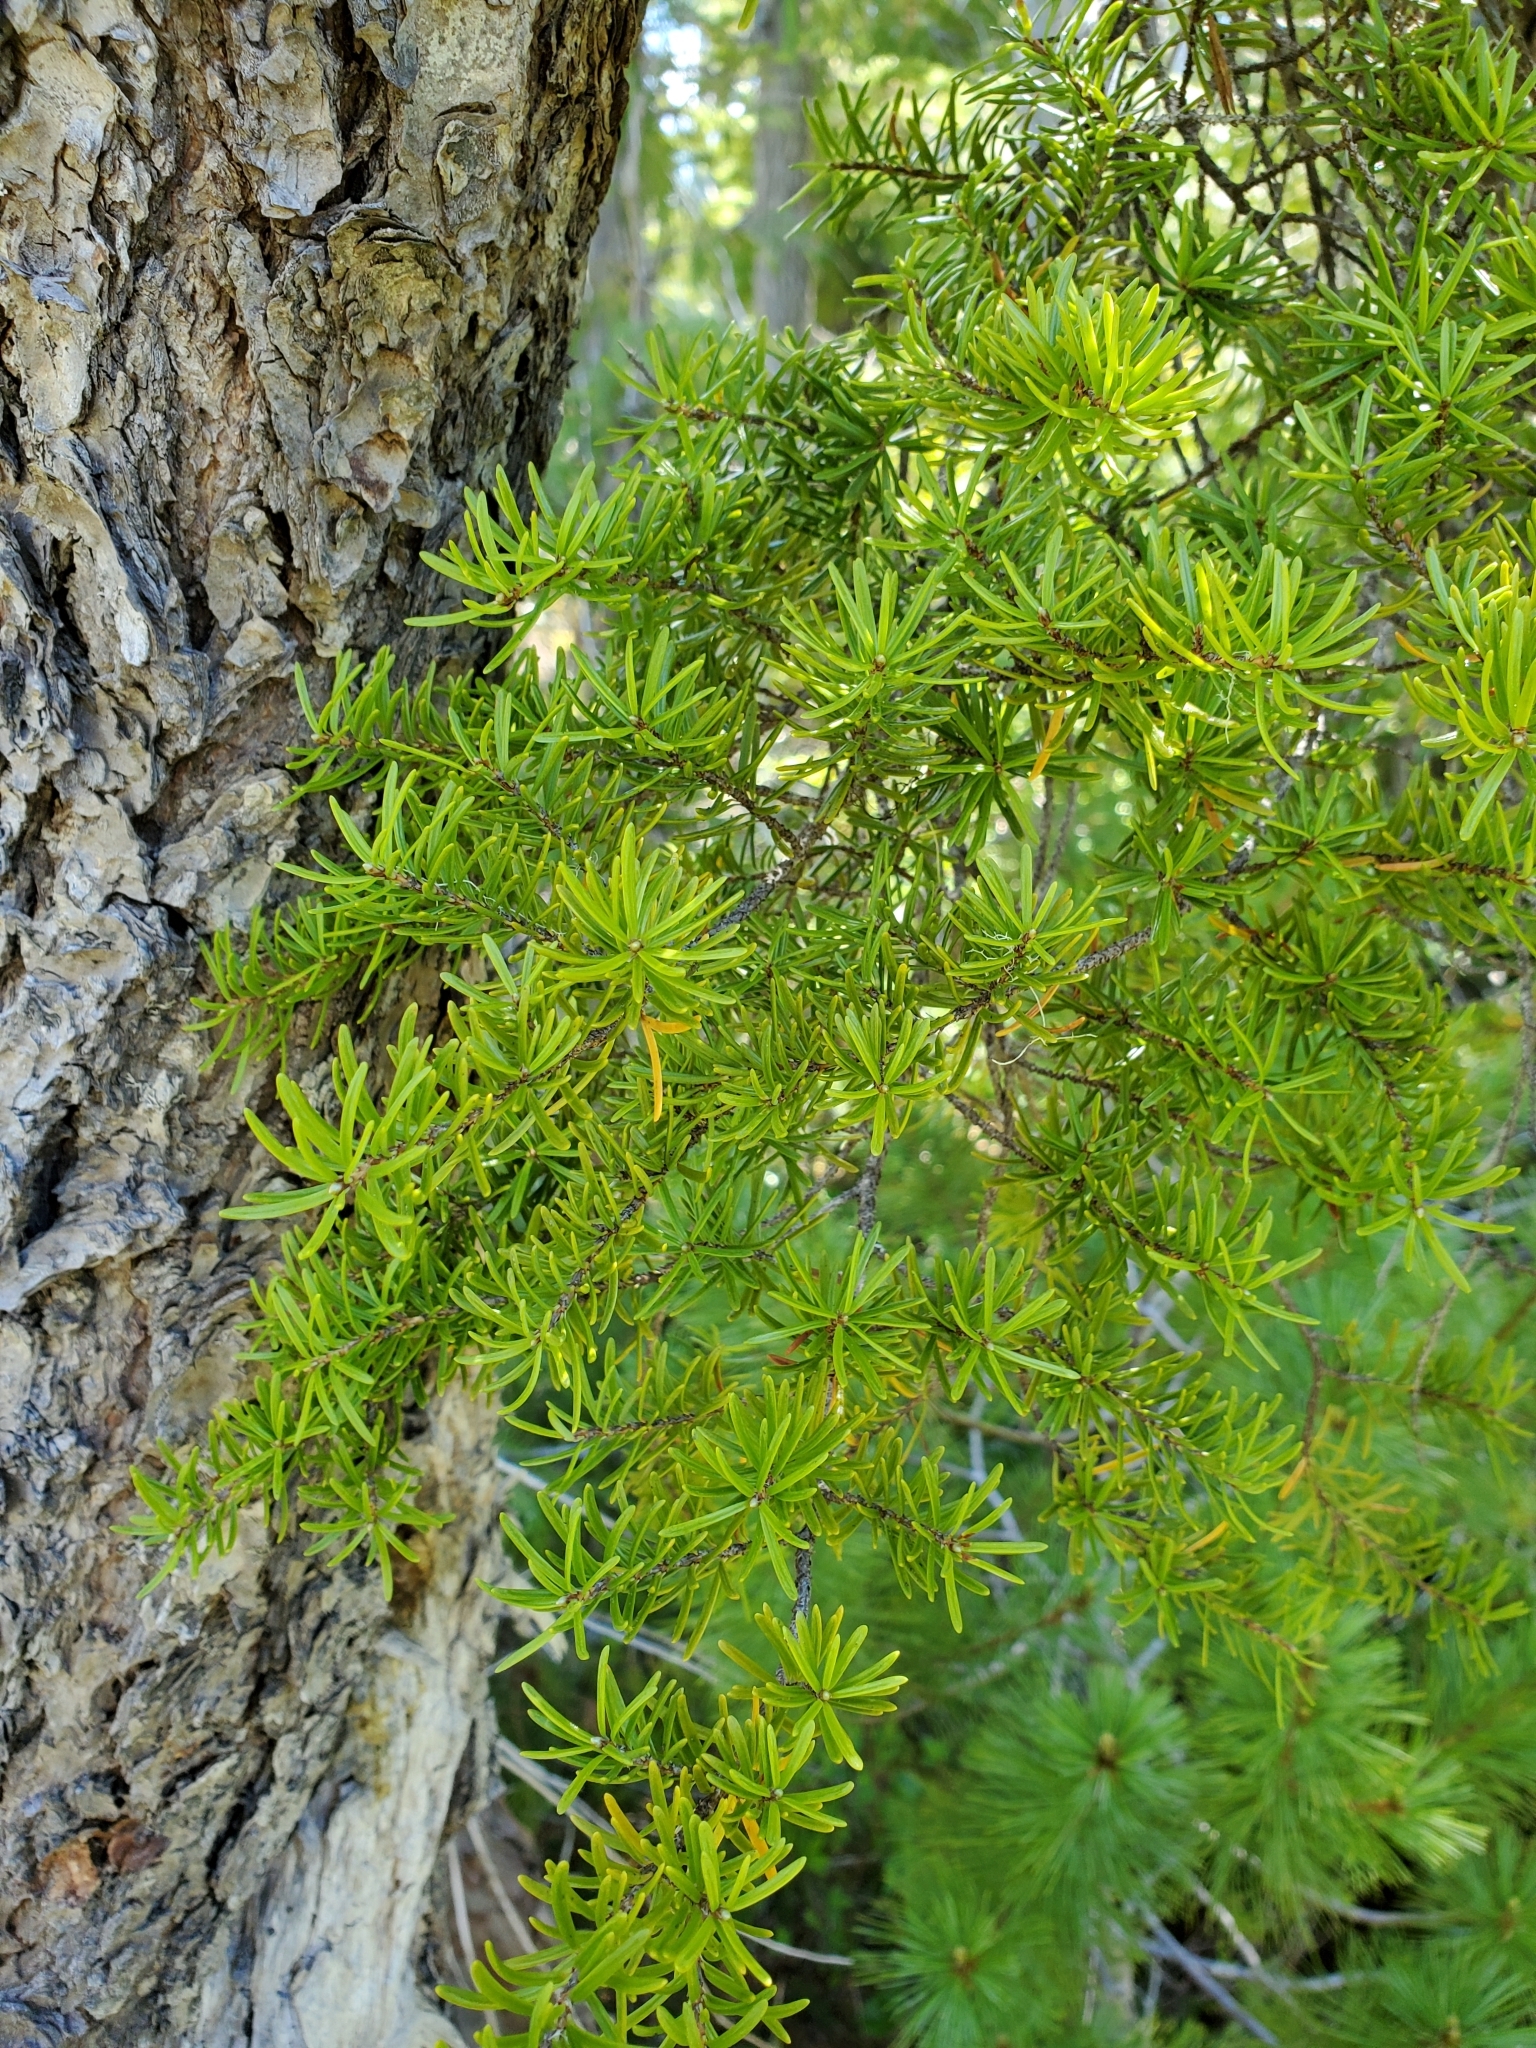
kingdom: Plantae
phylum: Tracheophyta
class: Pinopsida
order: Pinales
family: Pinaceae
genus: Tsuga
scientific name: Tsuga mertensiana
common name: Mountain hemlock
